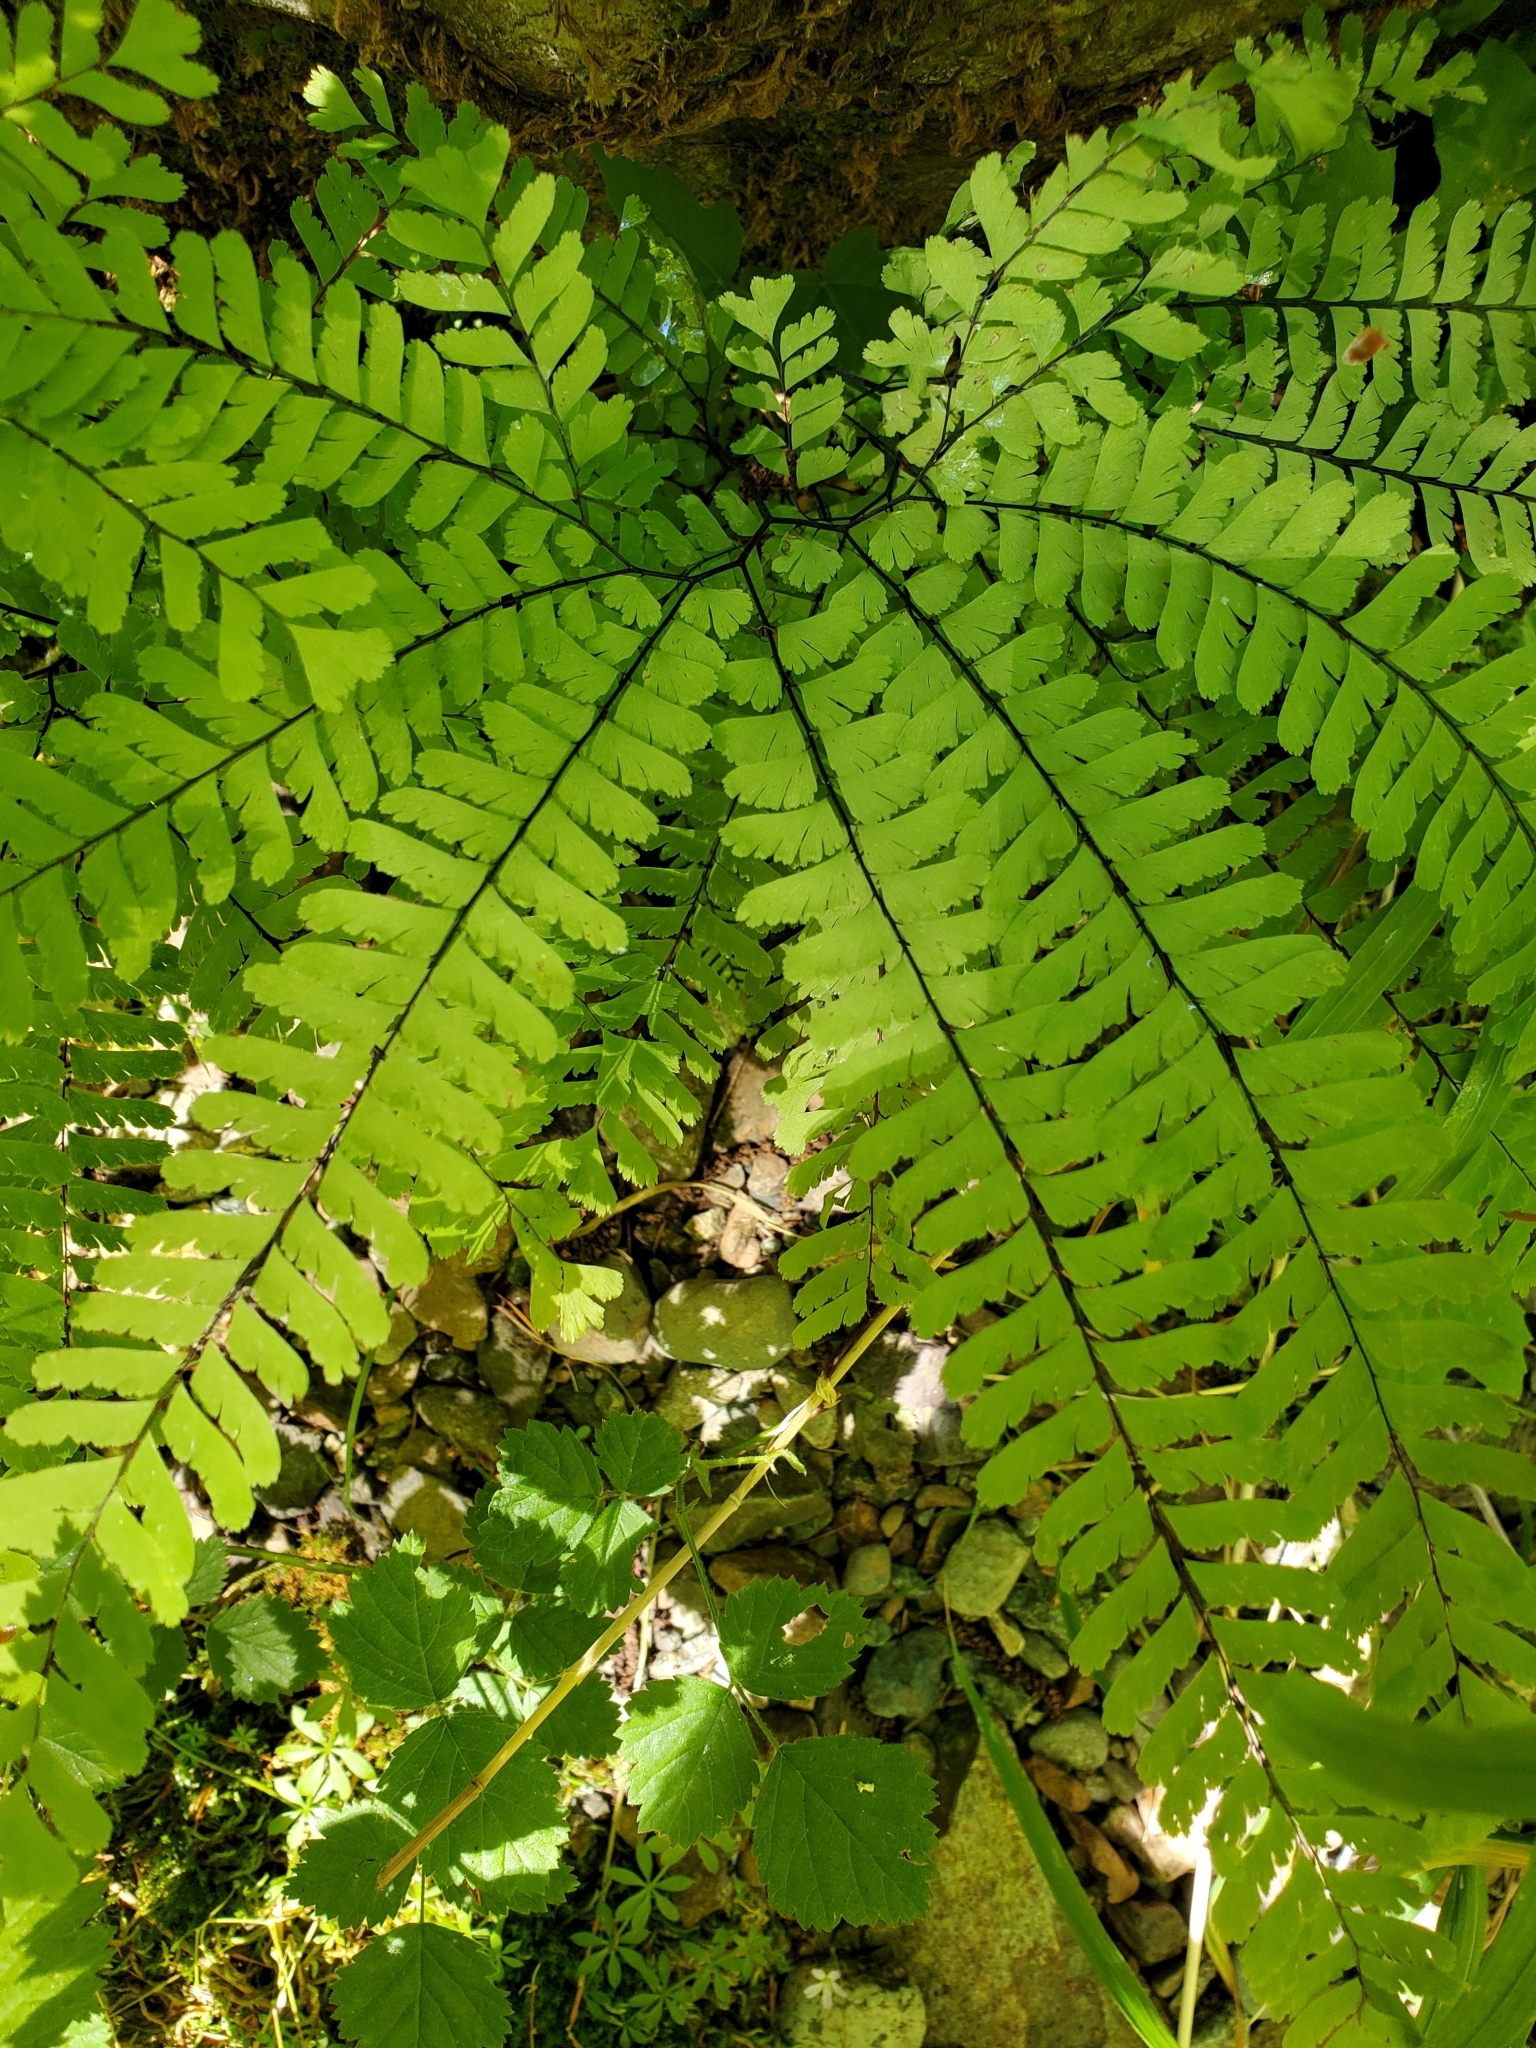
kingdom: Plantae
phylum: Tracheophyta
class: Polypodiopsida
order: Polypodiales
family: Pteridaceae
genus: Adiantum
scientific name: Adiantum aleuticum
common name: Aleutian maidenhair fern
